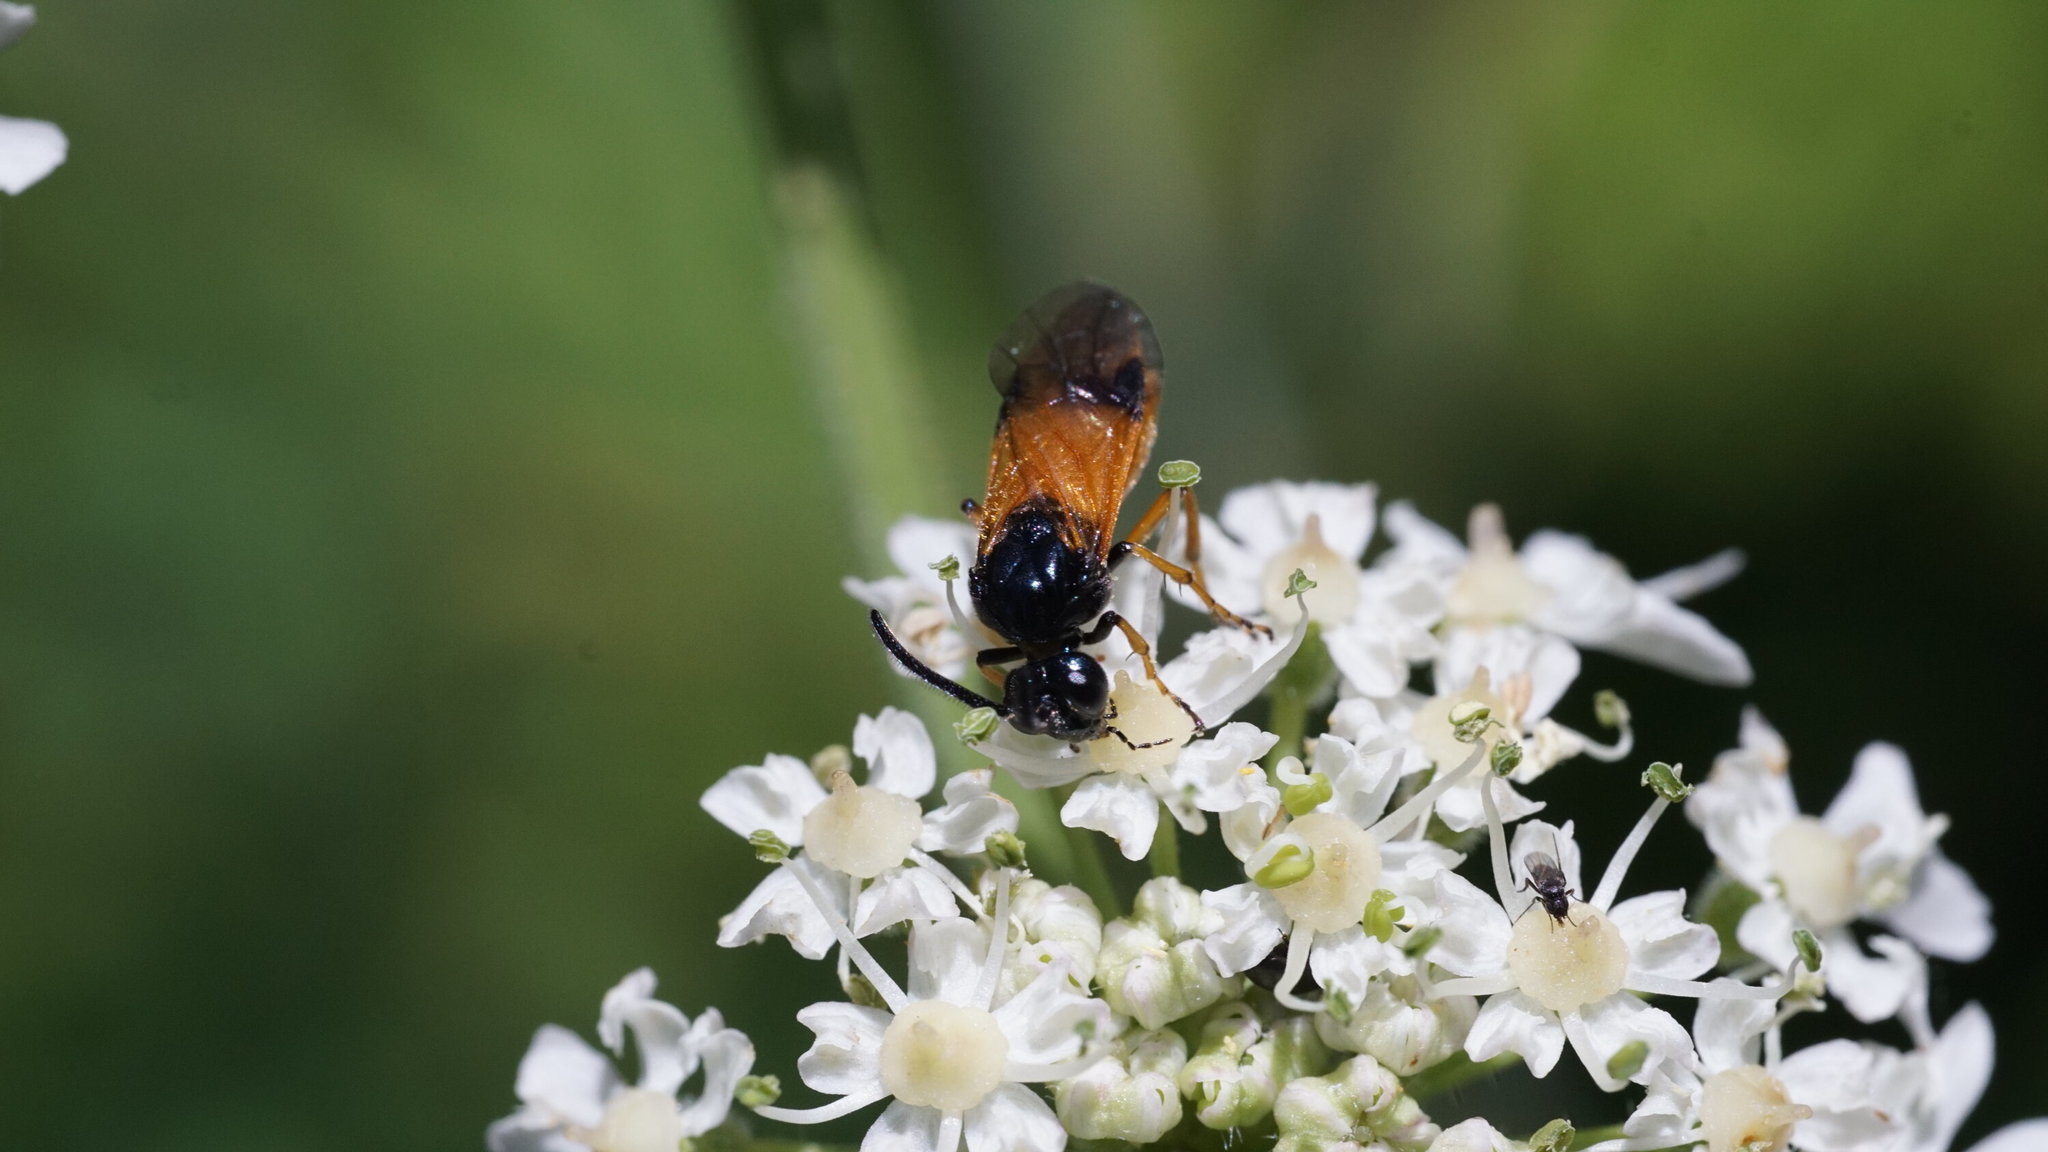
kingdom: Animalia
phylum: Arthropoda
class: Insecta
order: Hymenoptera
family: Argidae
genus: Arge
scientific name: Arge cyanocrocea
